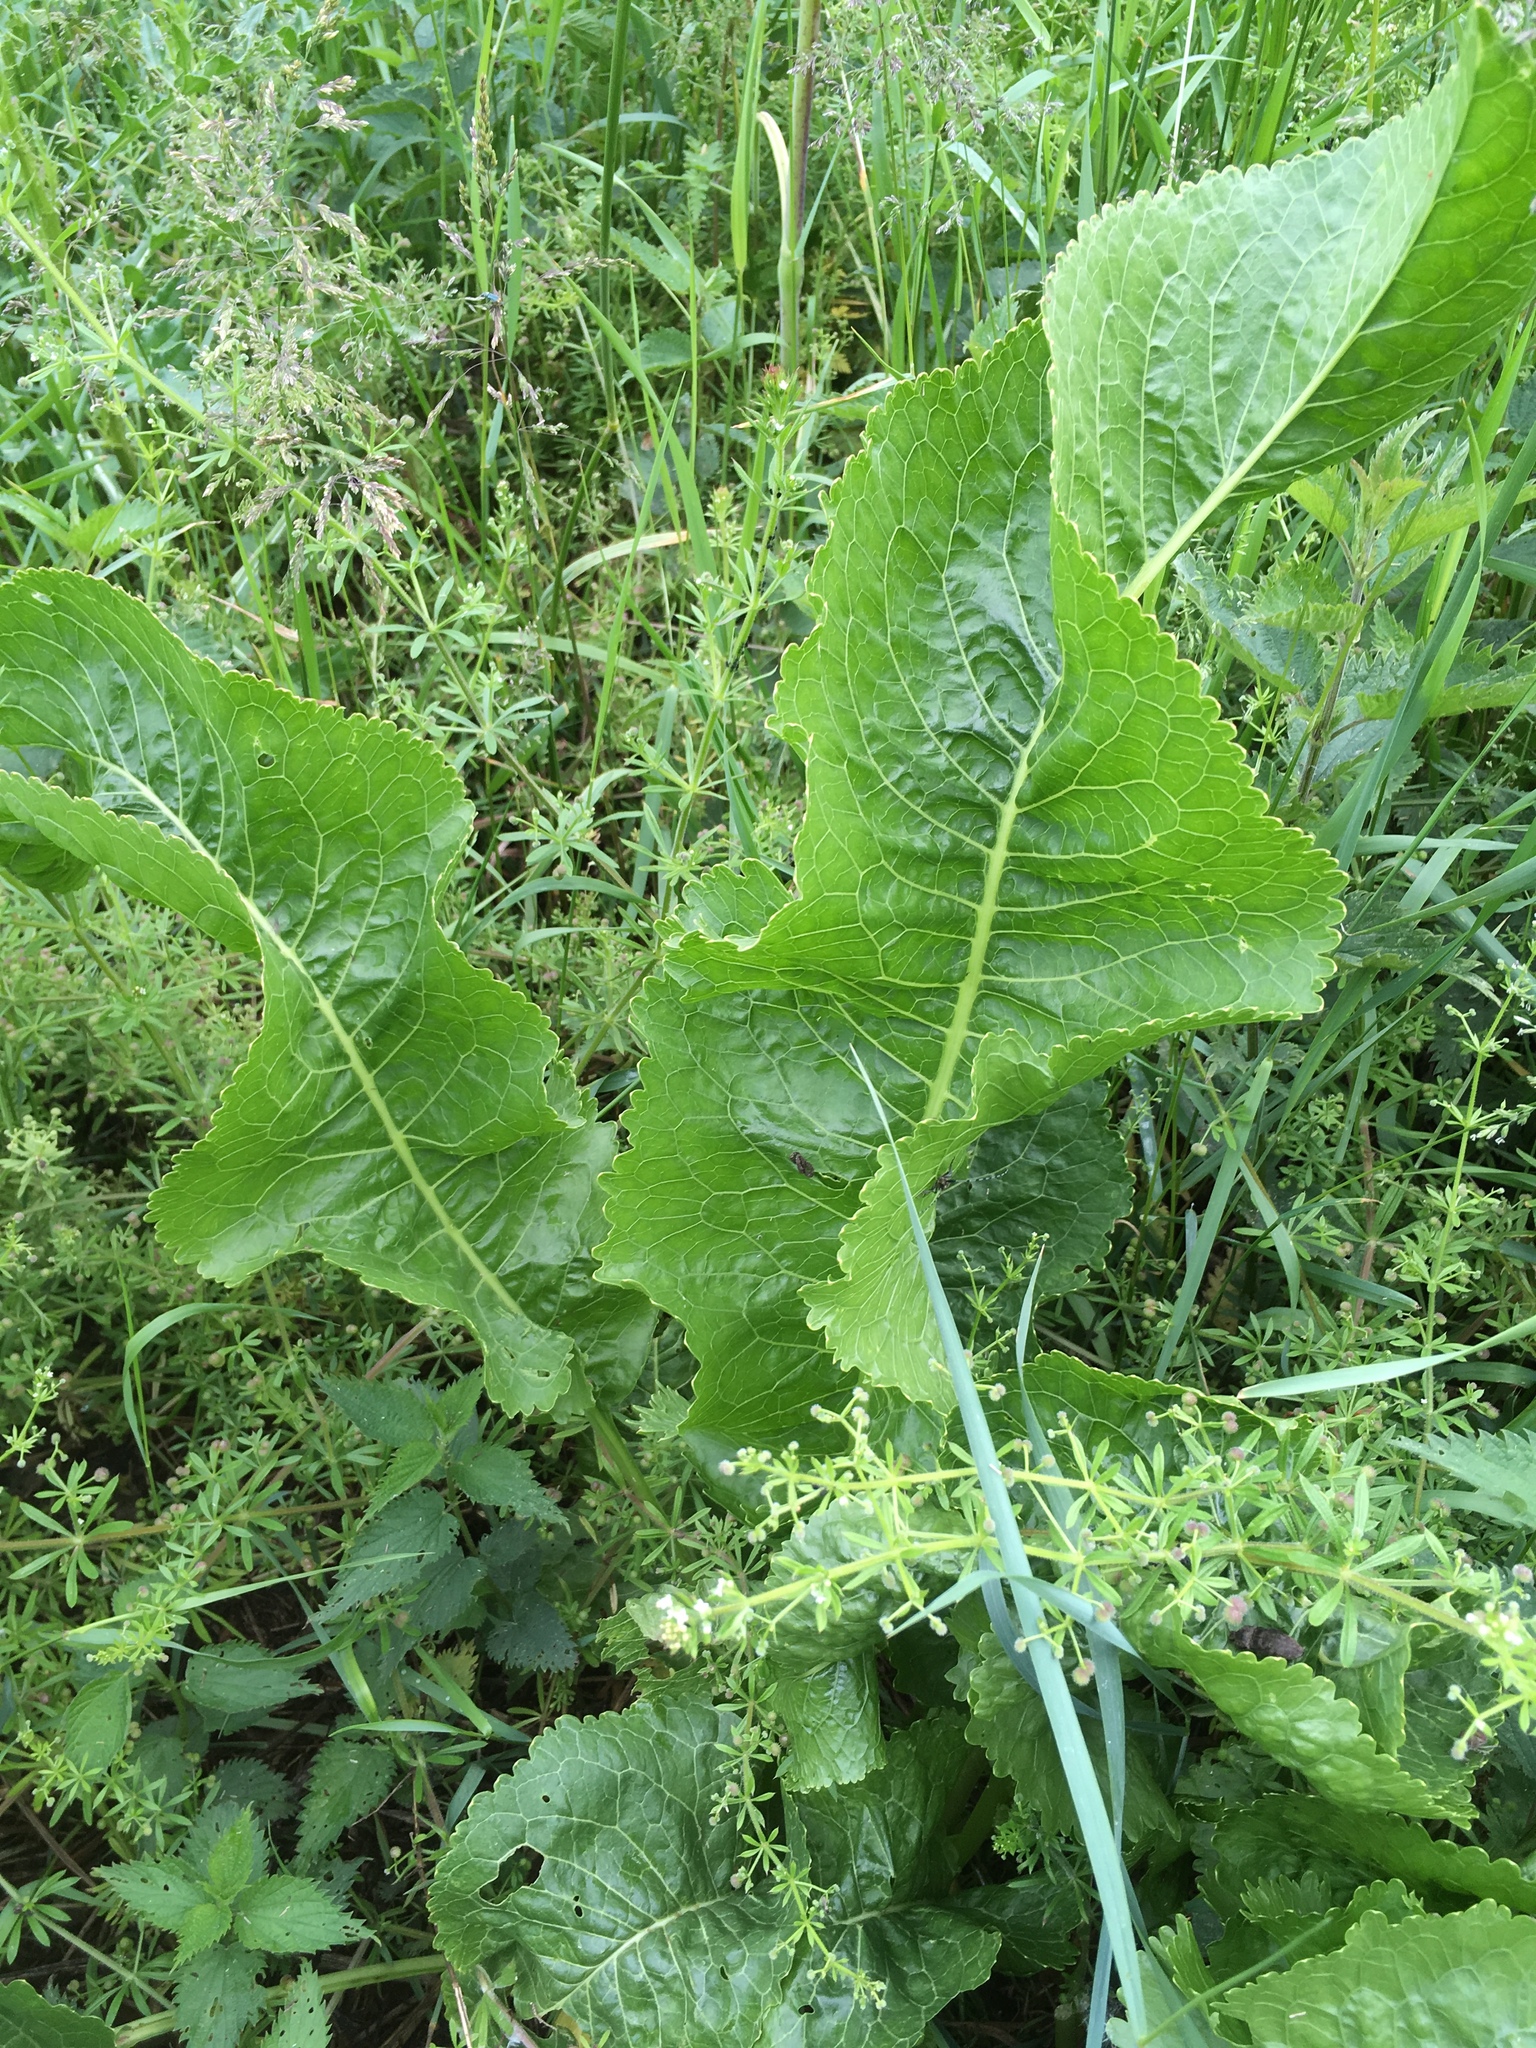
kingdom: Plantae
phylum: Tracheophyta
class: Magnoliopsida
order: Brassicales
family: Brassicaceae
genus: Armoracia
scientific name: Armoracia rusticana
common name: Horseradish
